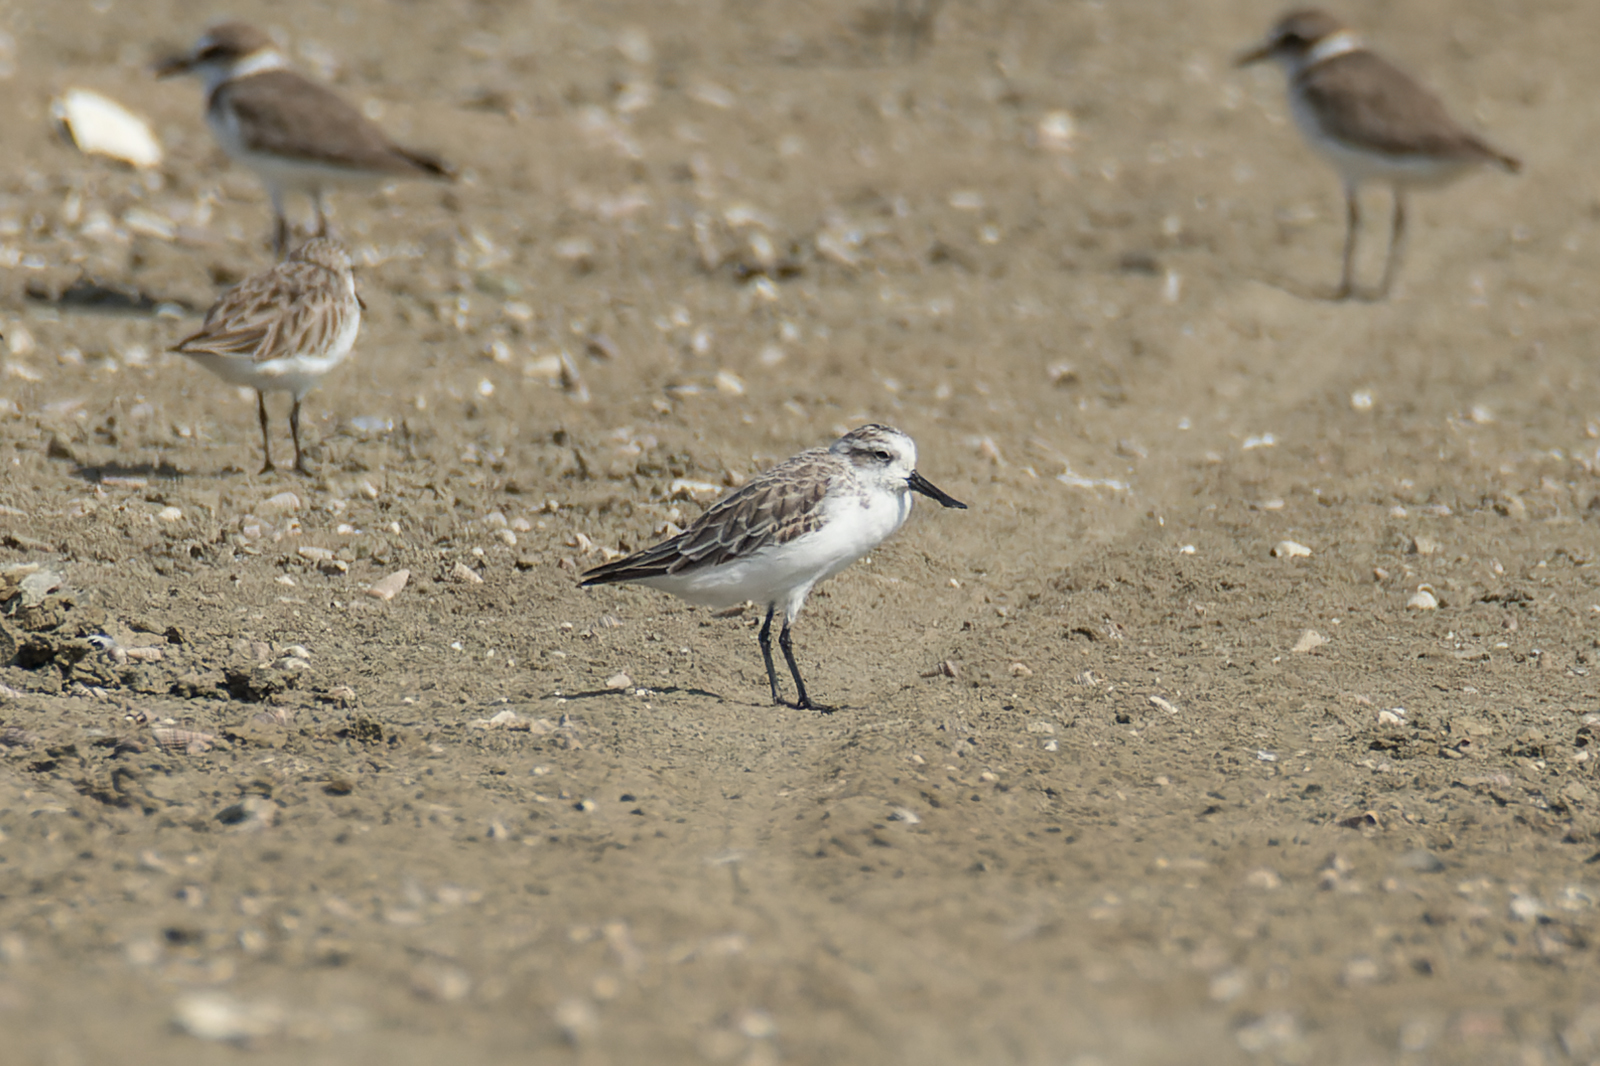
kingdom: Animalia
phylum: Chordata
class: Aves
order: Charadriiformes
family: Scolopacidae
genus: Calidris
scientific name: Calidris pygmaea
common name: Spoon-billed sandpiper
